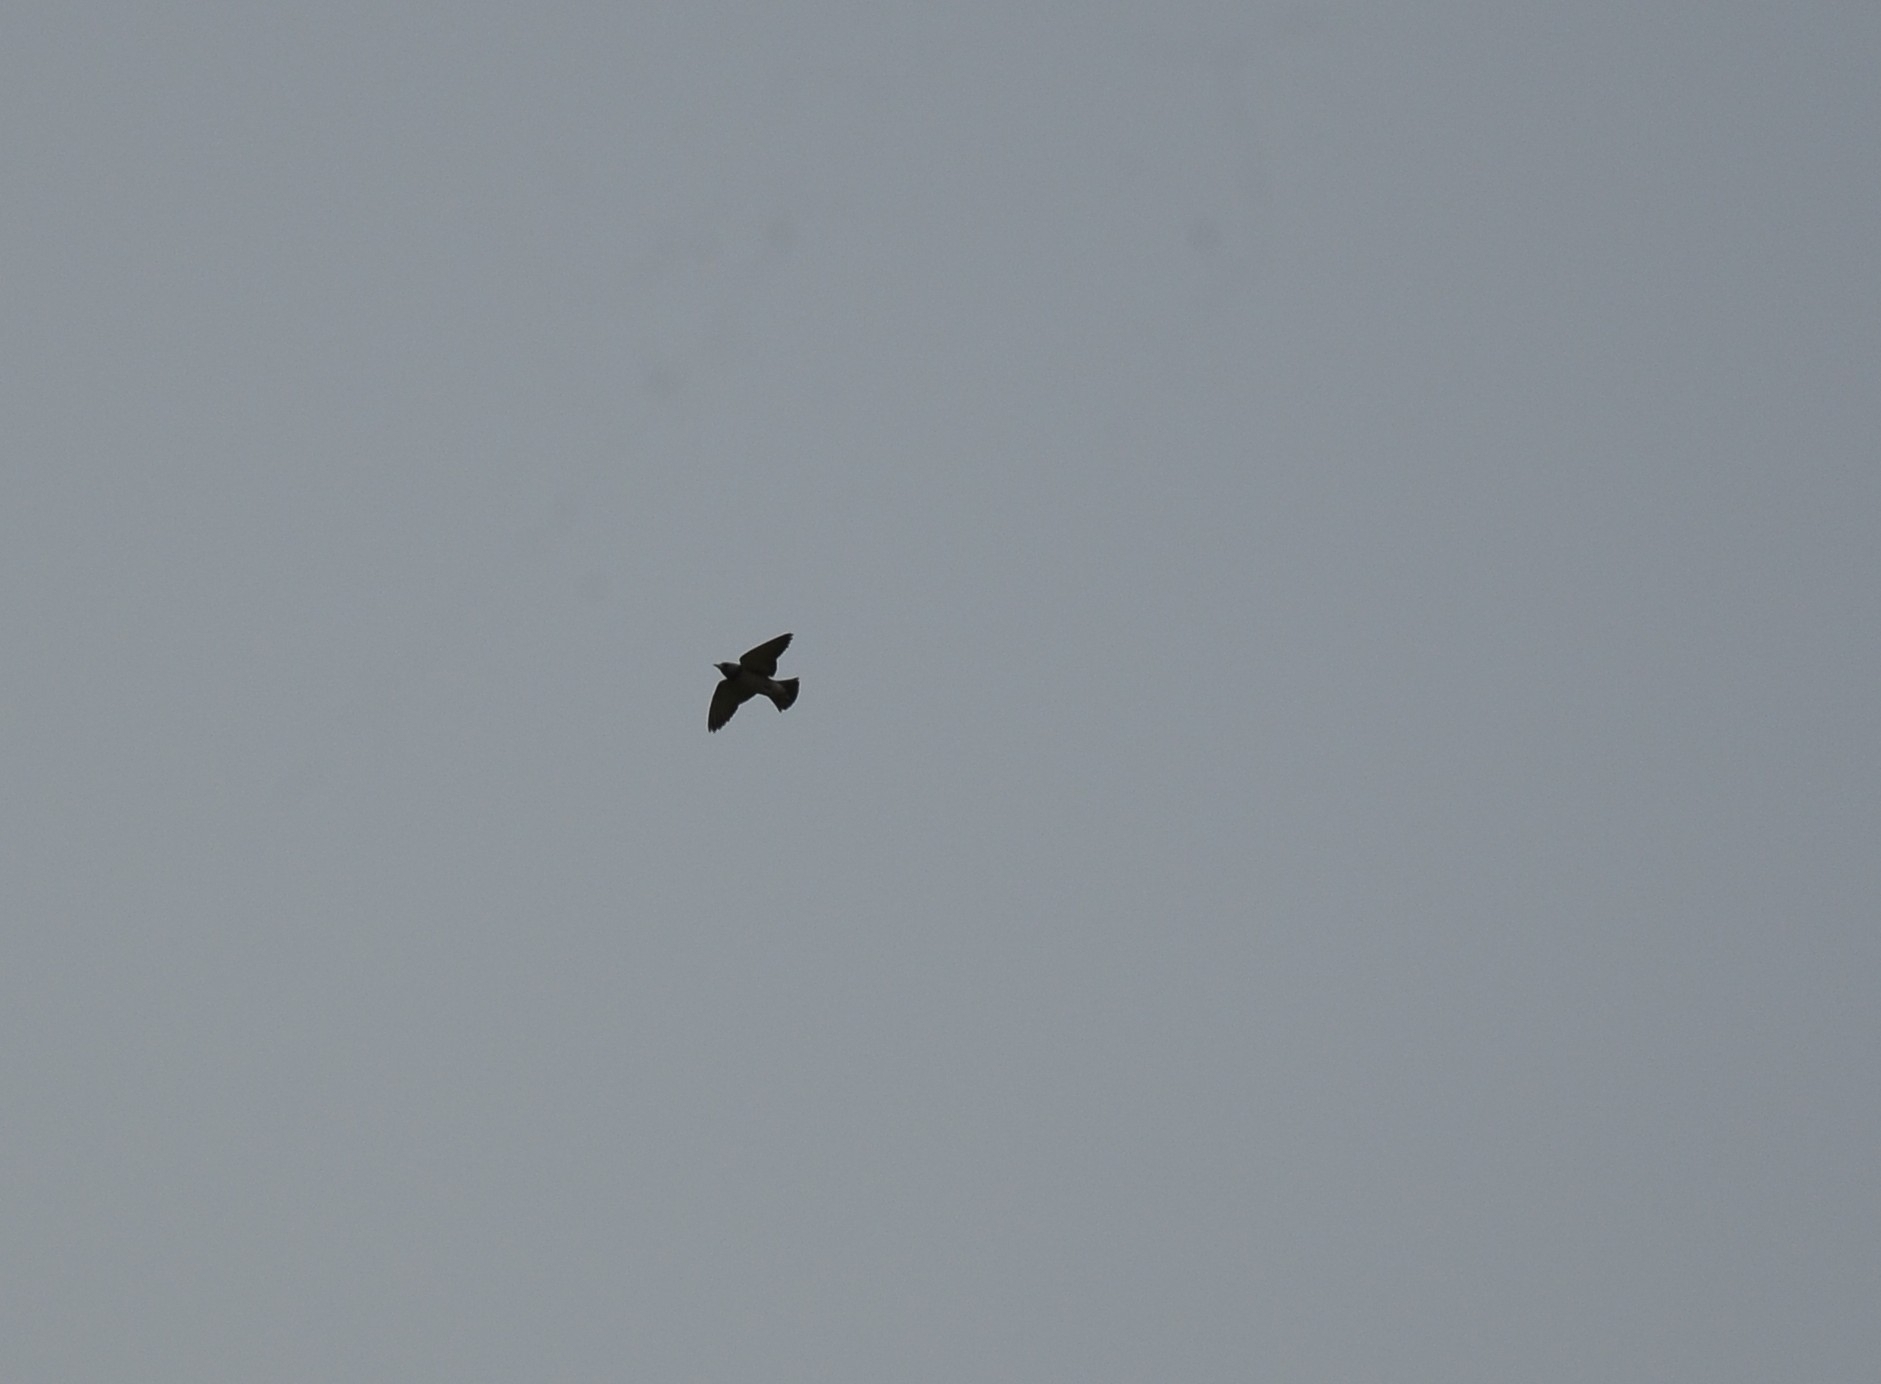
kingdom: Animalia
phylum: Chordata
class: Aves
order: Passeriformes
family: Artamidae
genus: Artamus
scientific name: Artamus fuscus
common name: Ashy woodswallow
